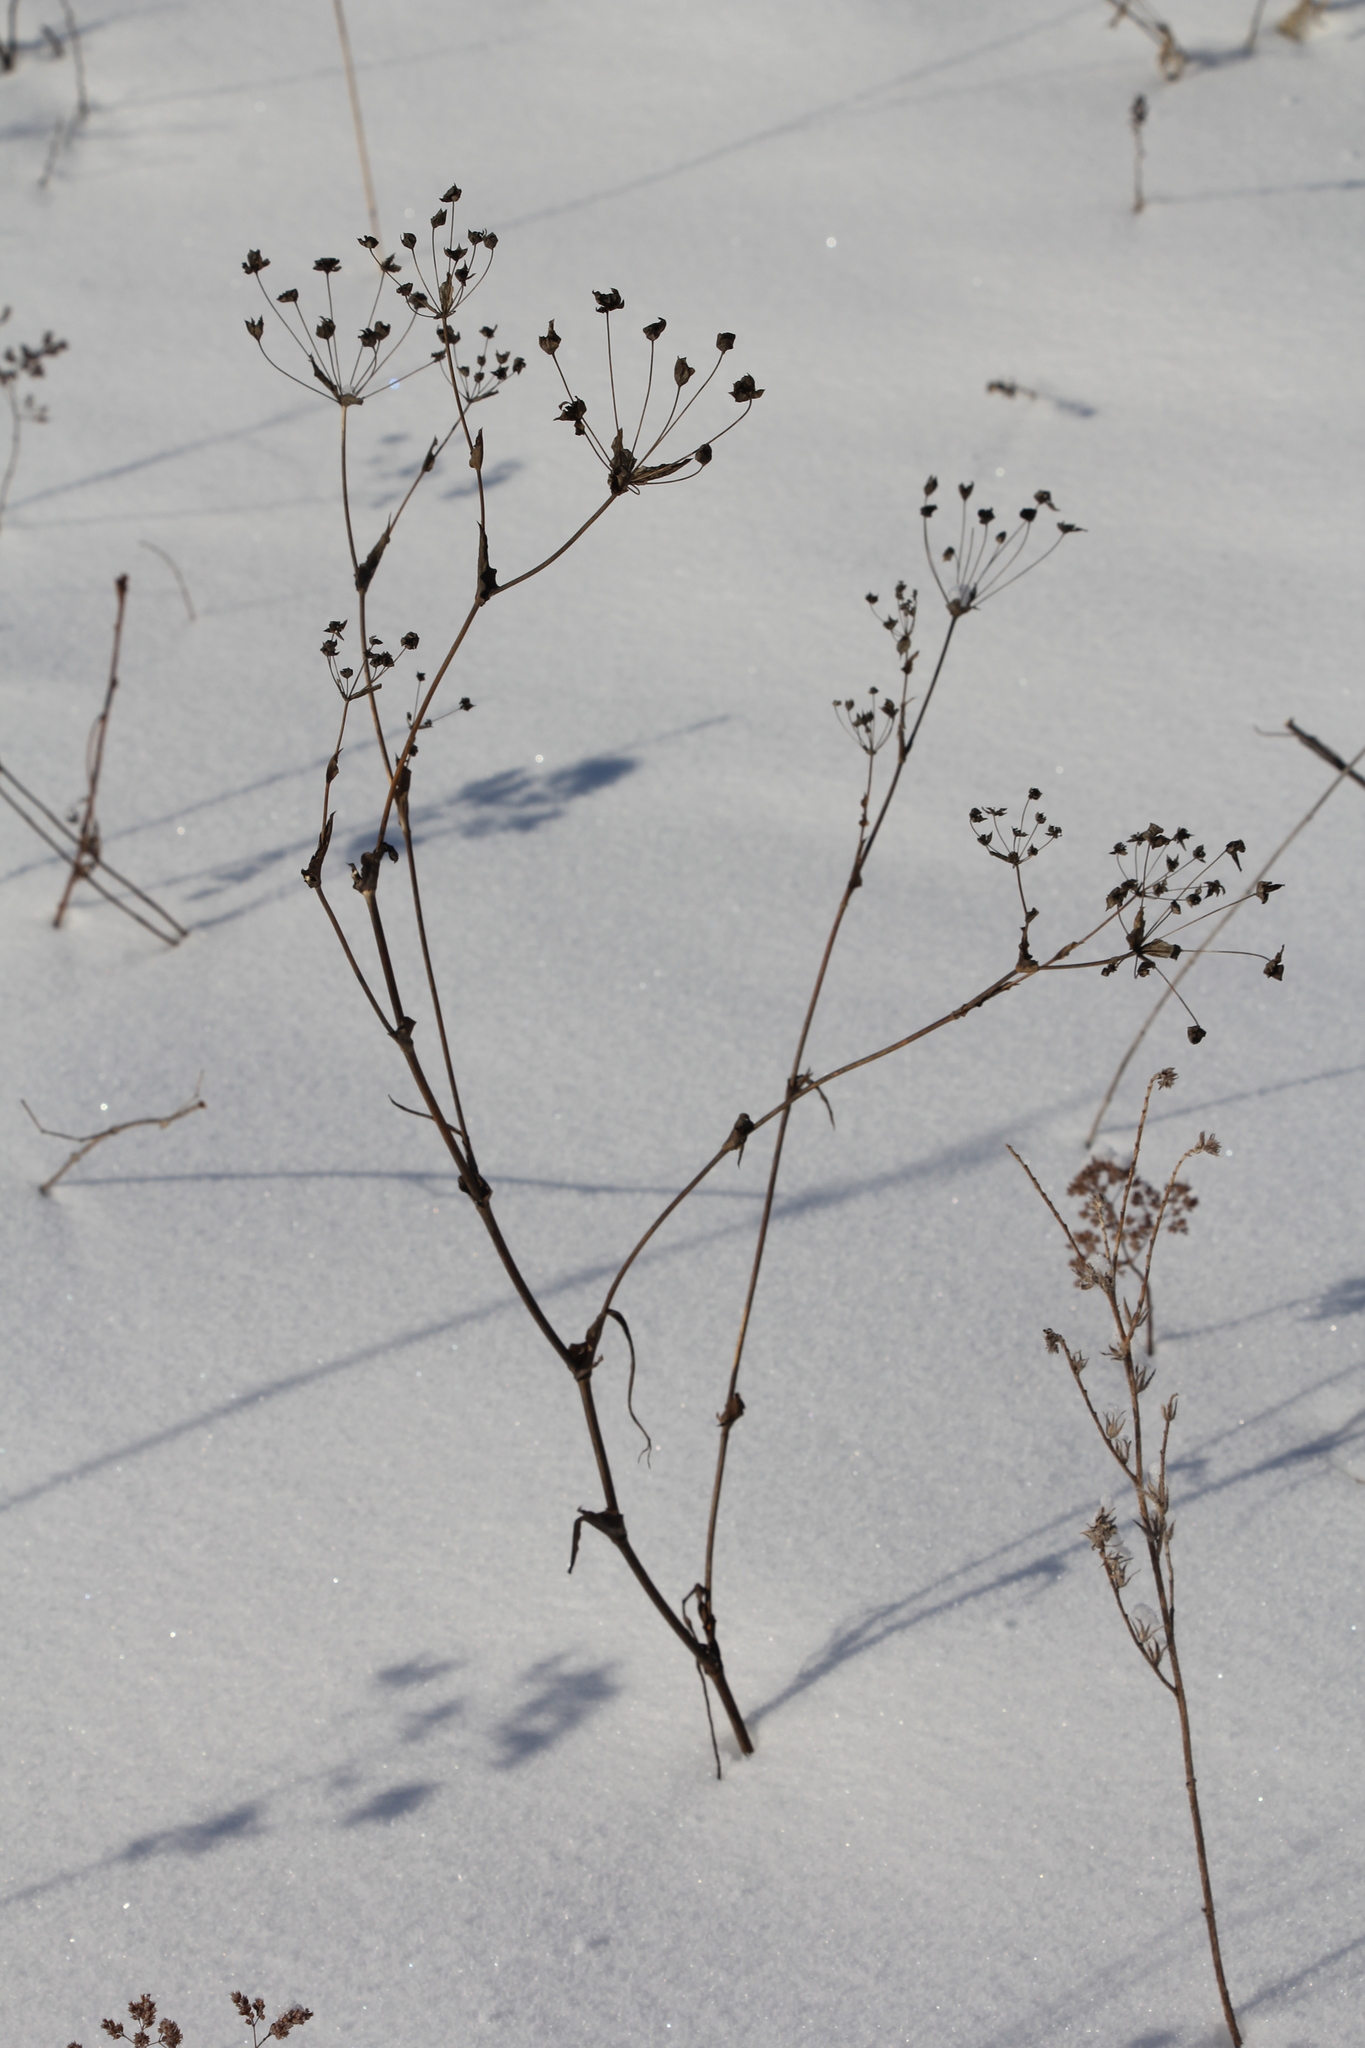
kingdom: Plantae
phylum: Tracheophyta
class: Magnoliopsida
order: Apiales
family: Apiaceae
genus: Bupleurum
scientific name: Bupleurum multinerve
